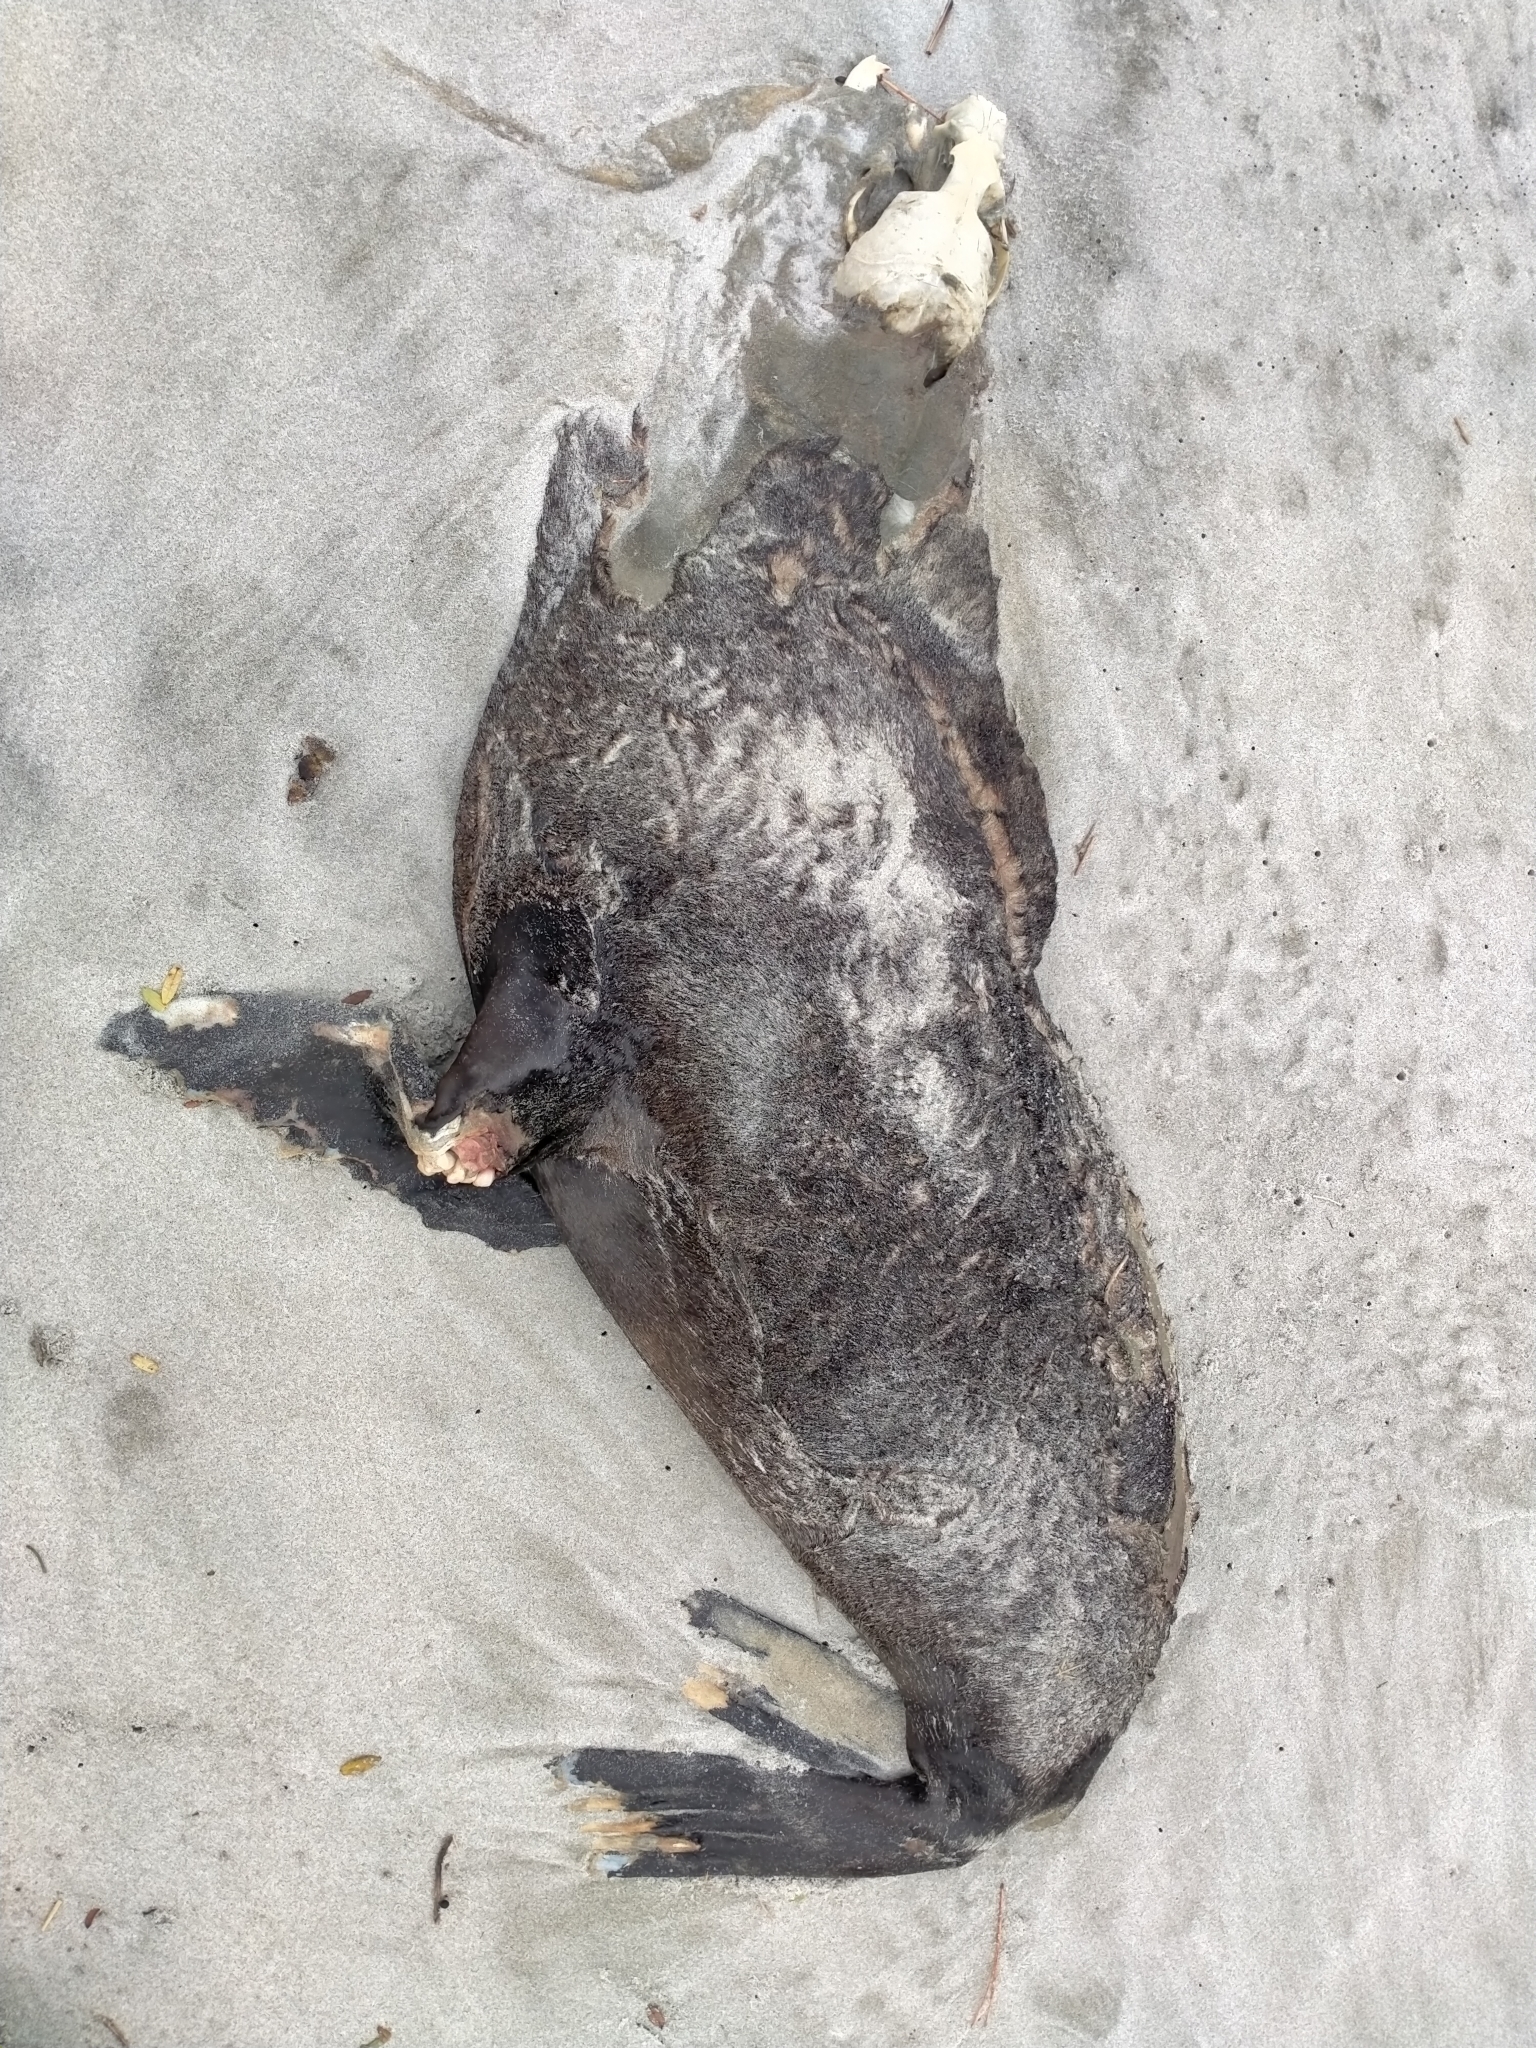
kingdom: Animalia
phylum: Chordata
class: Mammalia
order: Carnivora
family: Otariidae
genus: Arctocephalus
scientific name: Arctocephalus forsteri
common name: New zealand fur seal
